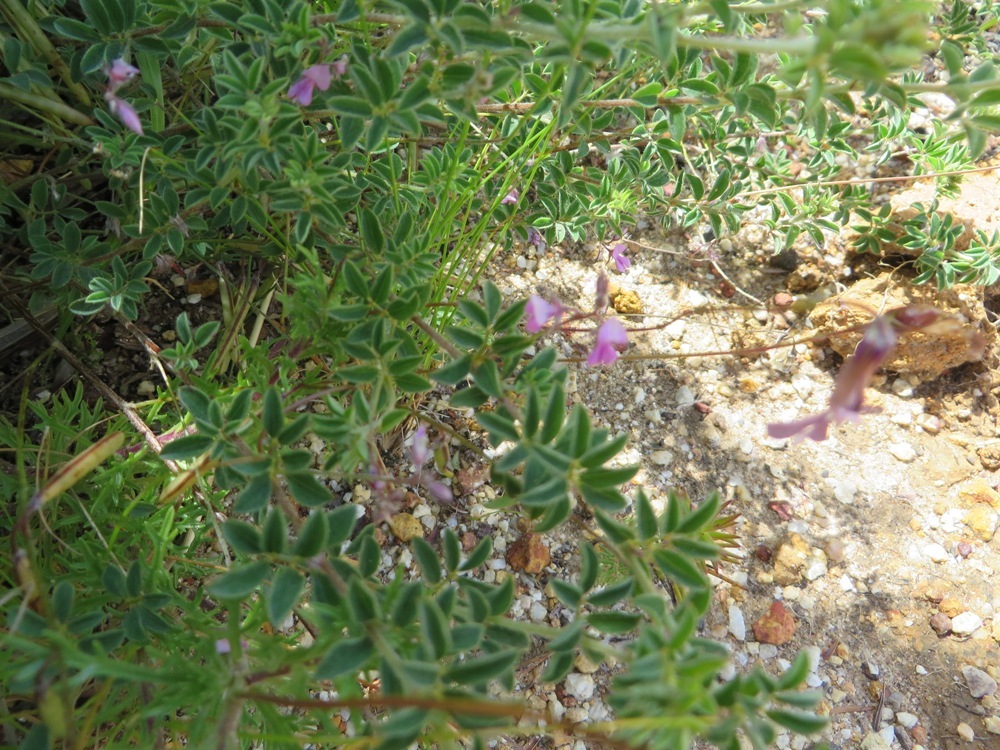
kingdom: Plantae
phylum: Tracheophyta
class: Magnoliopsida
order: Fabales
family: Fabaceae
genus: Indigofera
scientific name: Indigofera alopecuroides
